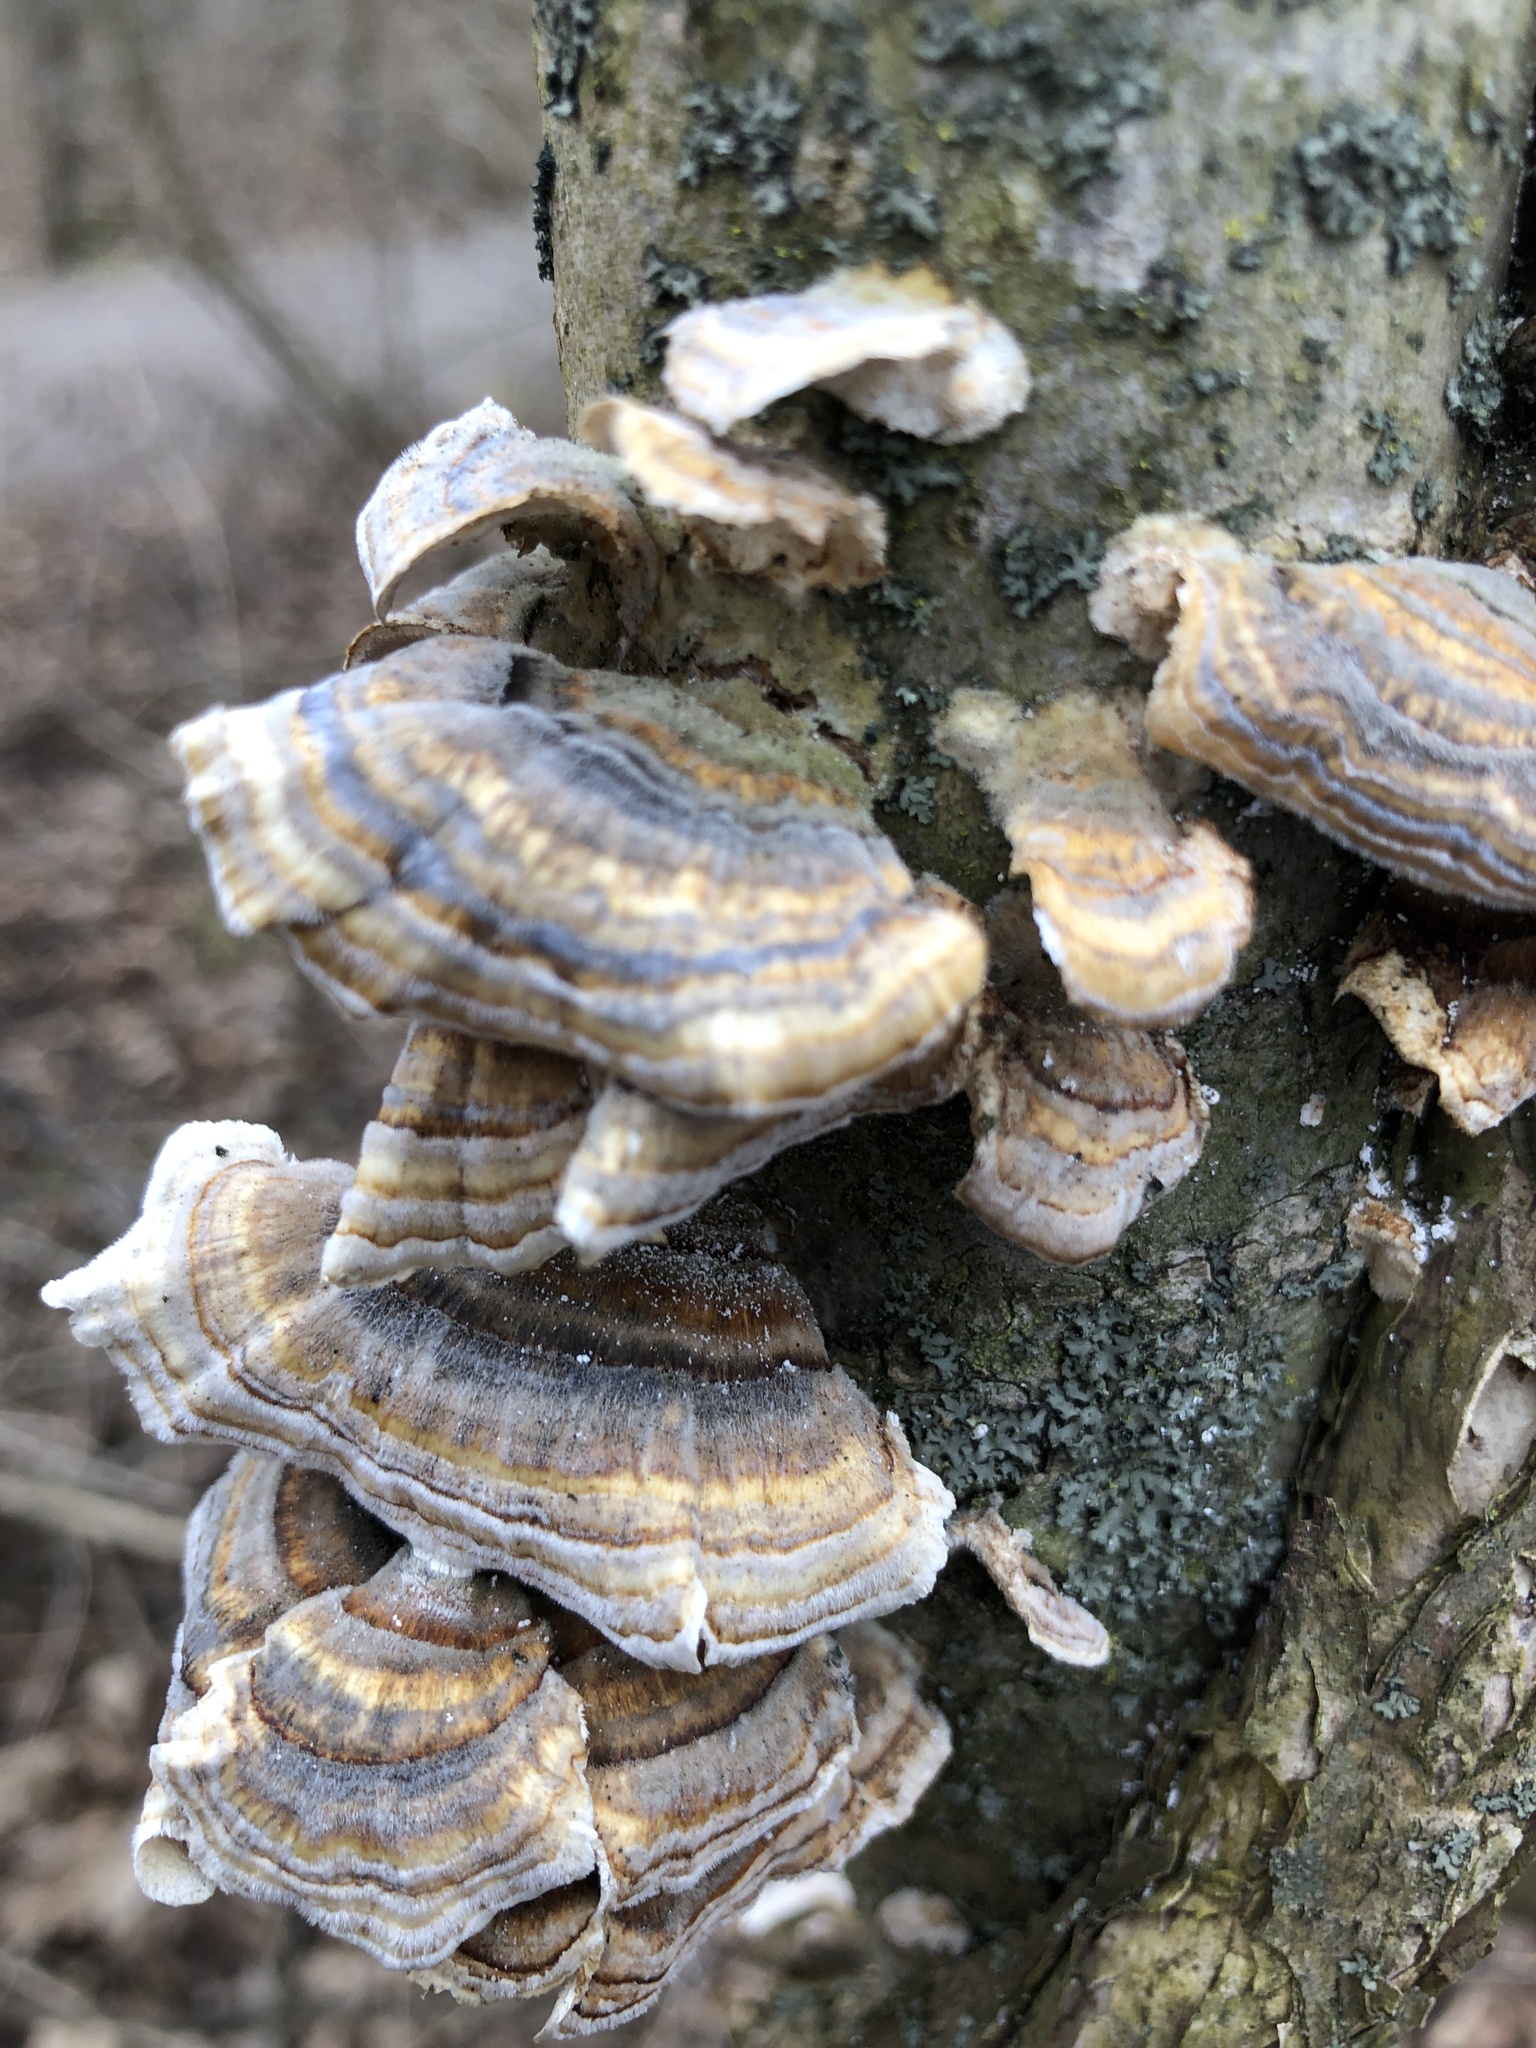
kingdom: Fungi
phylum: Basidiomycota
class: Agaricomycetes
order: Polyporales
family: Polyporaceae
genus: Trametes
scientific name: Trametes versicolor
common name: Turkeytail
